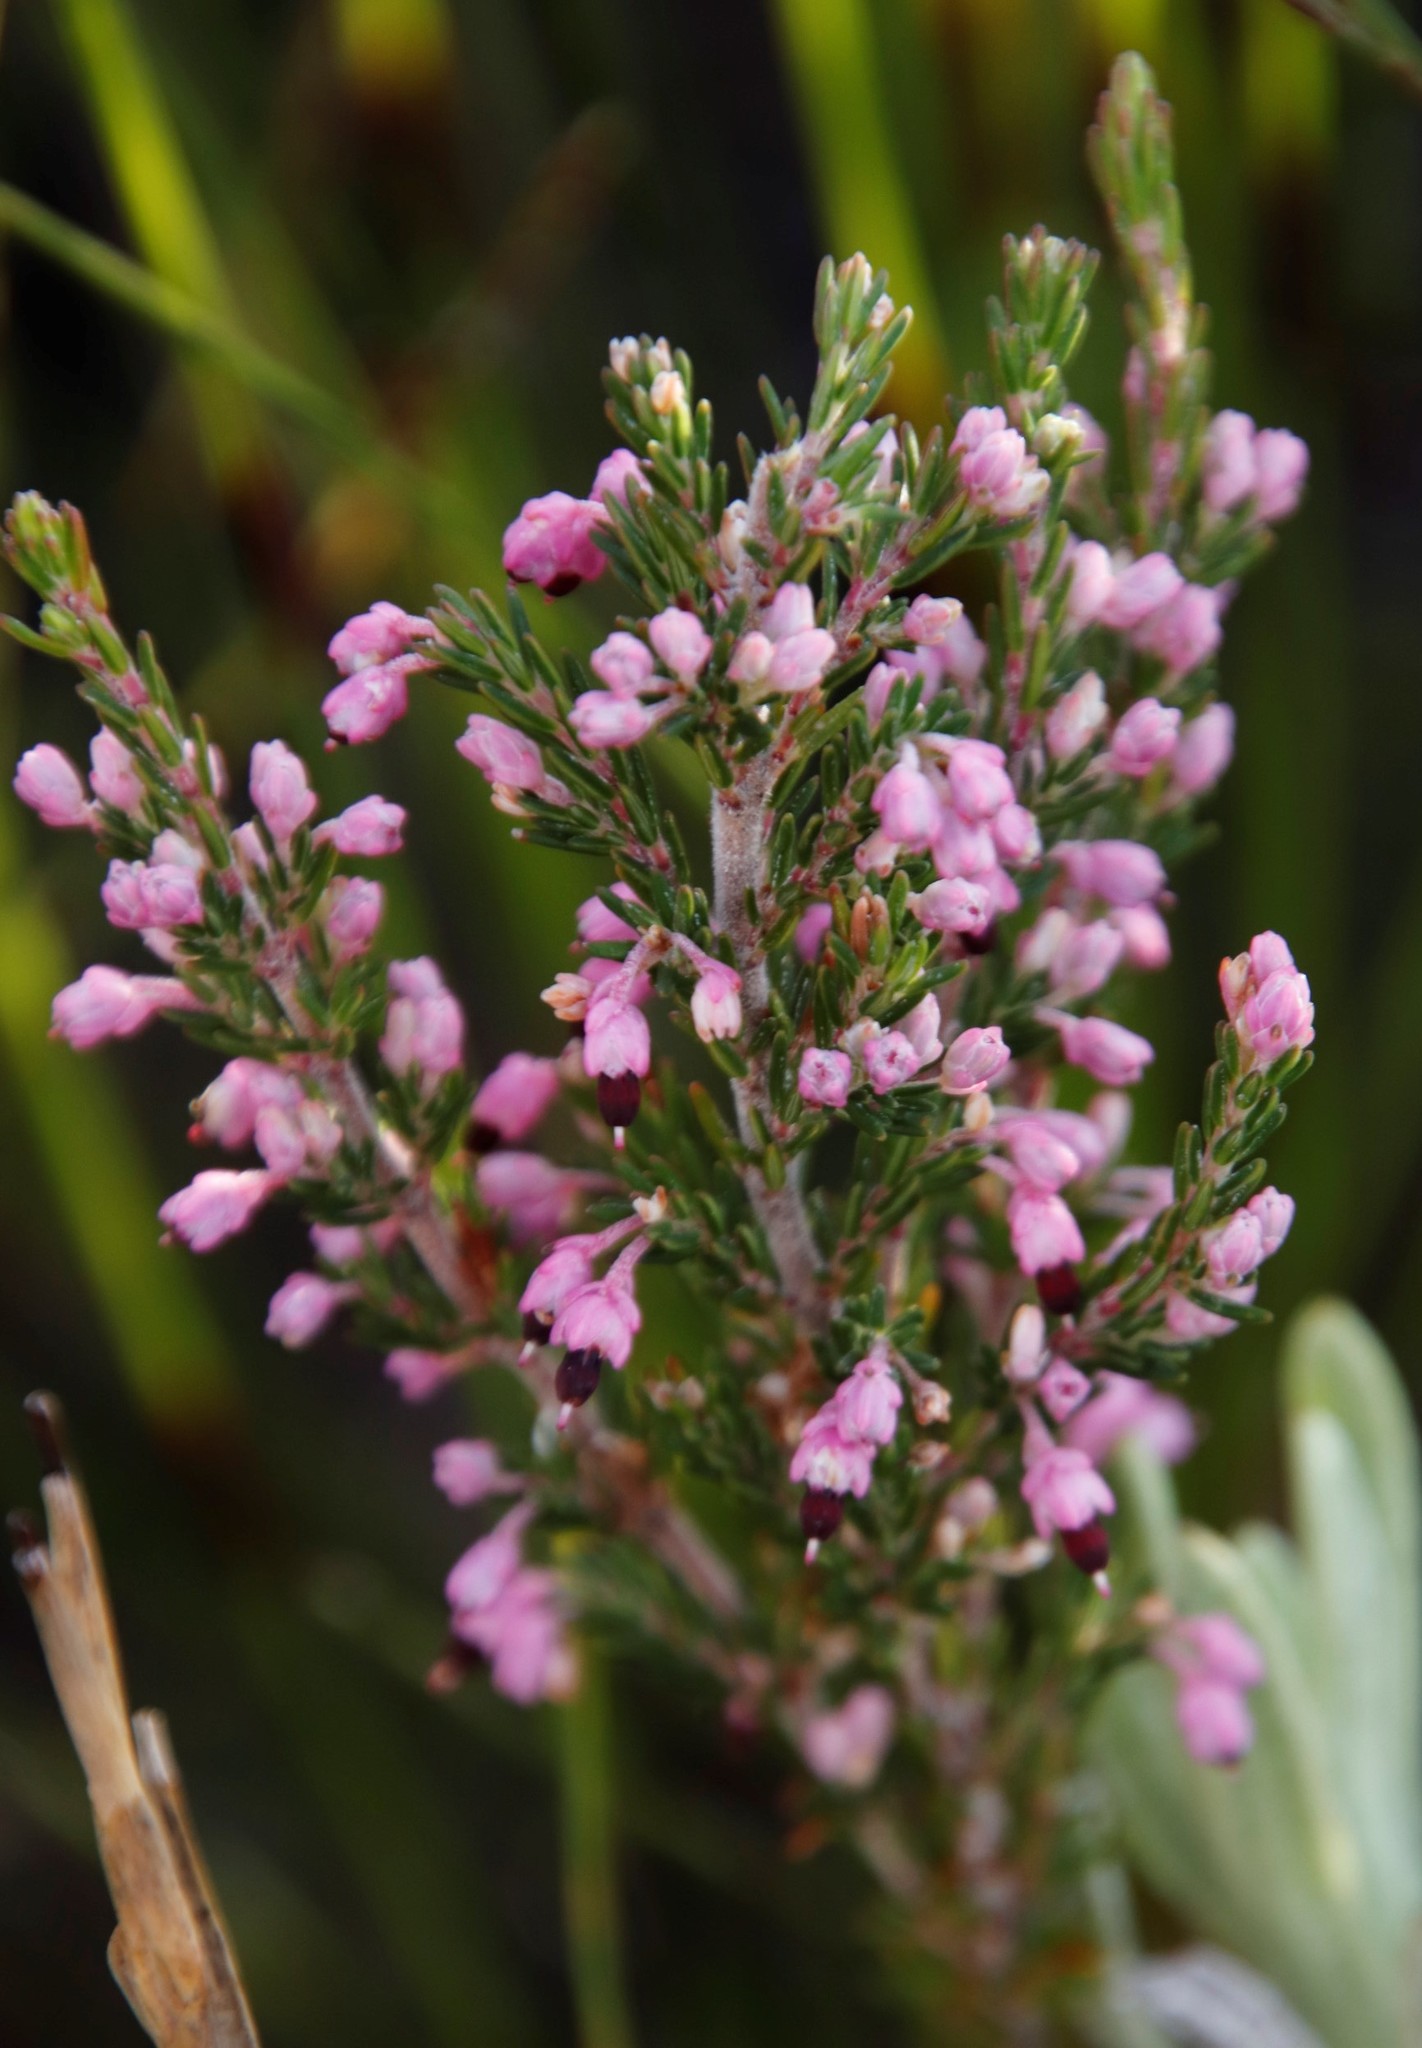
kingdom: Plantae
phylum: Tracheophyta
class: Magnoliopsida
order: Ericales
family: Ericaceae
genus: Erica
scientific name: Erica placentiflora
